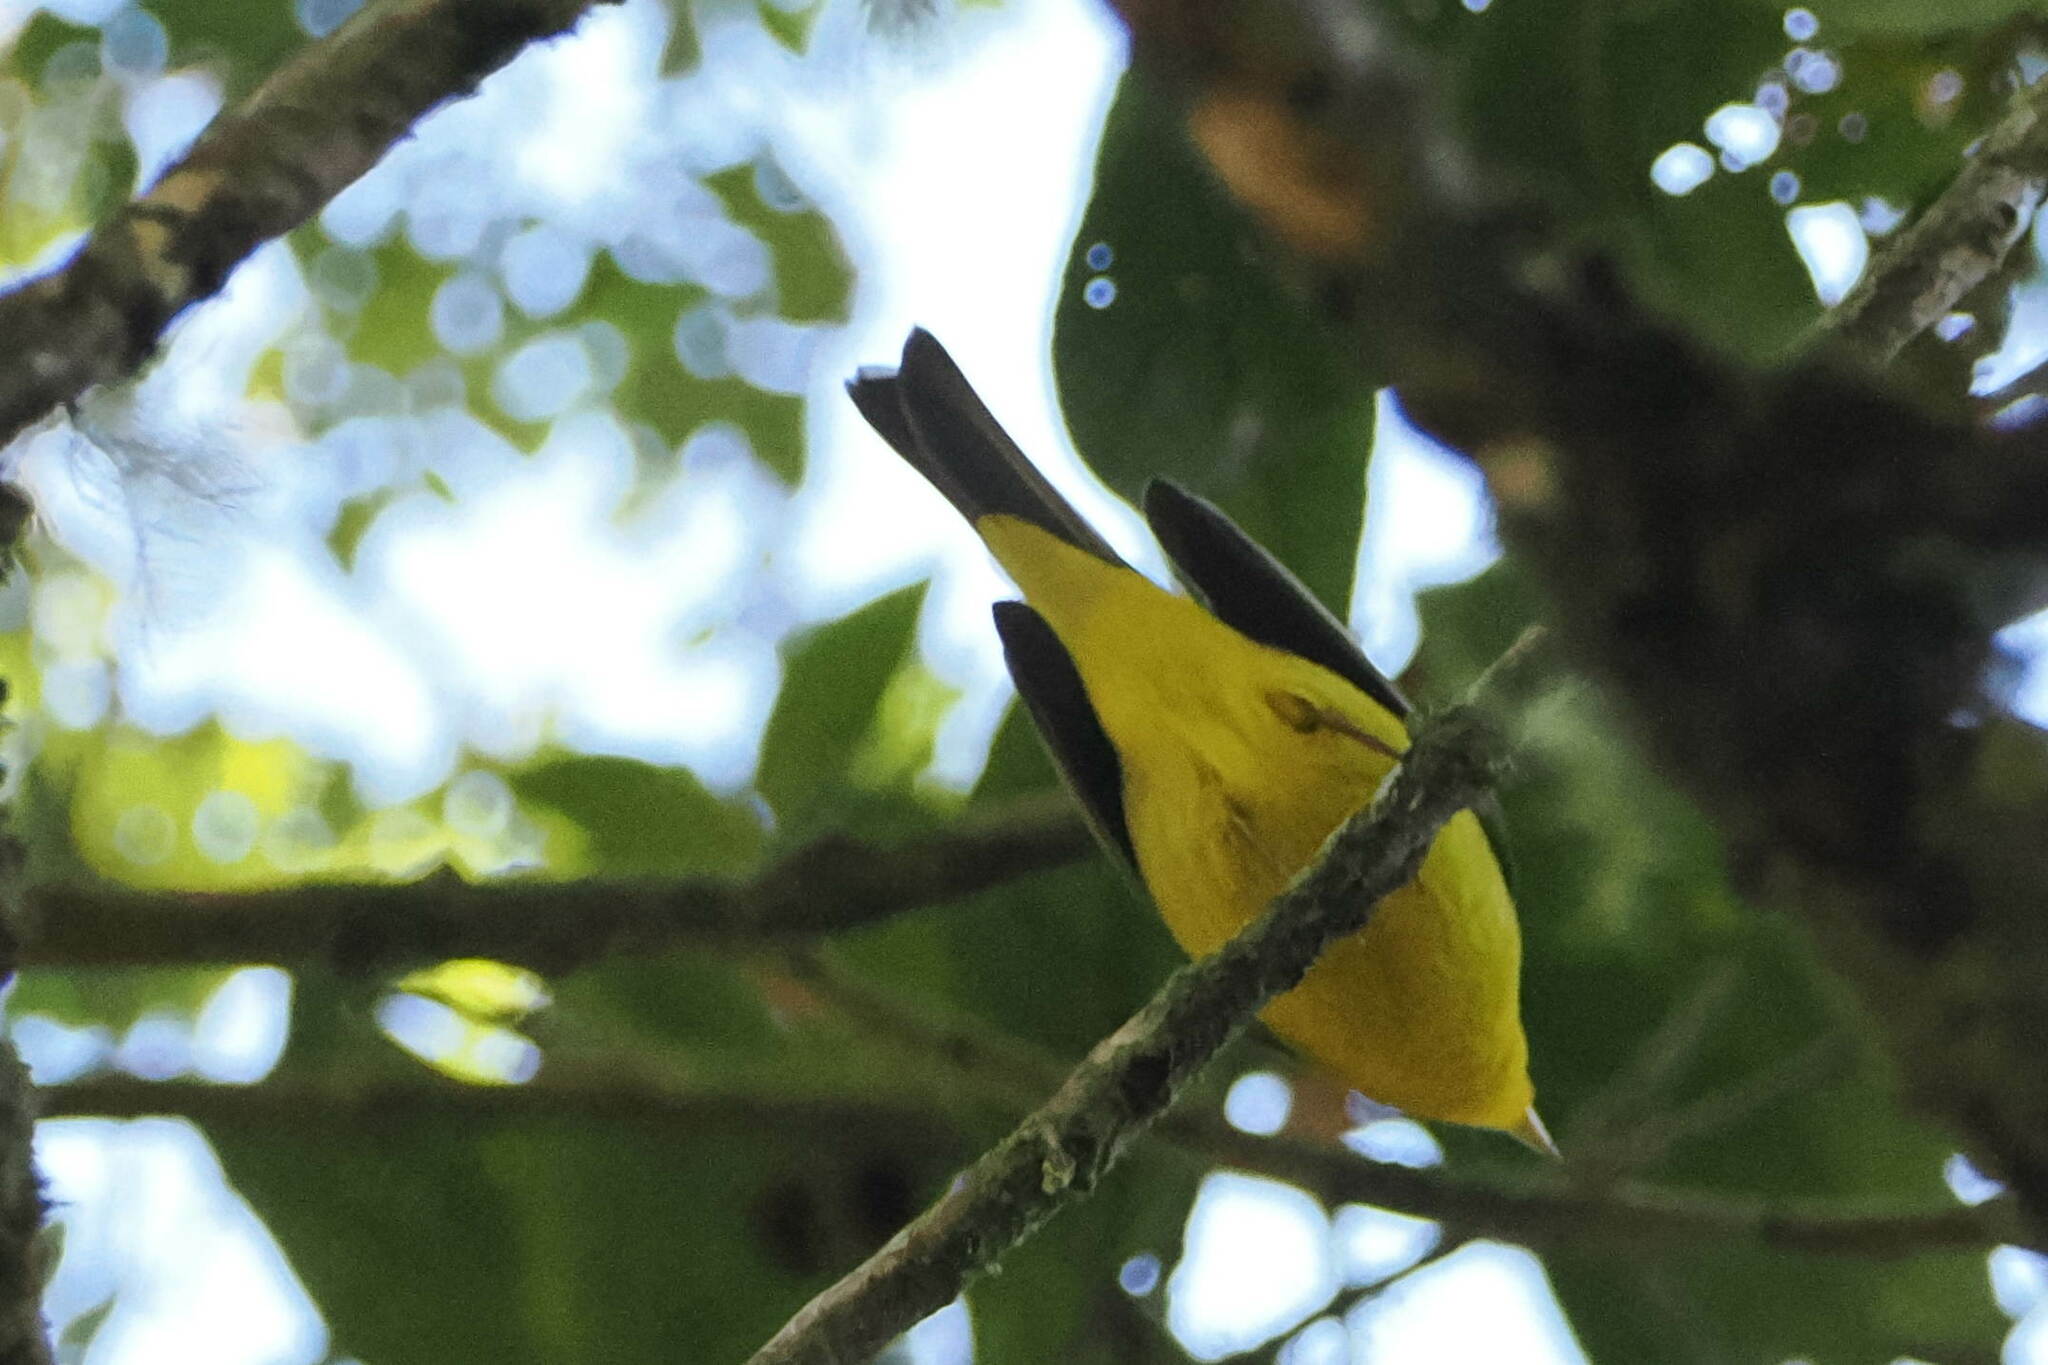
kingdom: Animalia
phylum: Chordata
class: Aves
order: Passeriformes
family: Parulidae
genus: Cardellina
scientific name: Cardellina pusilla
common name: Wilson's warbler
